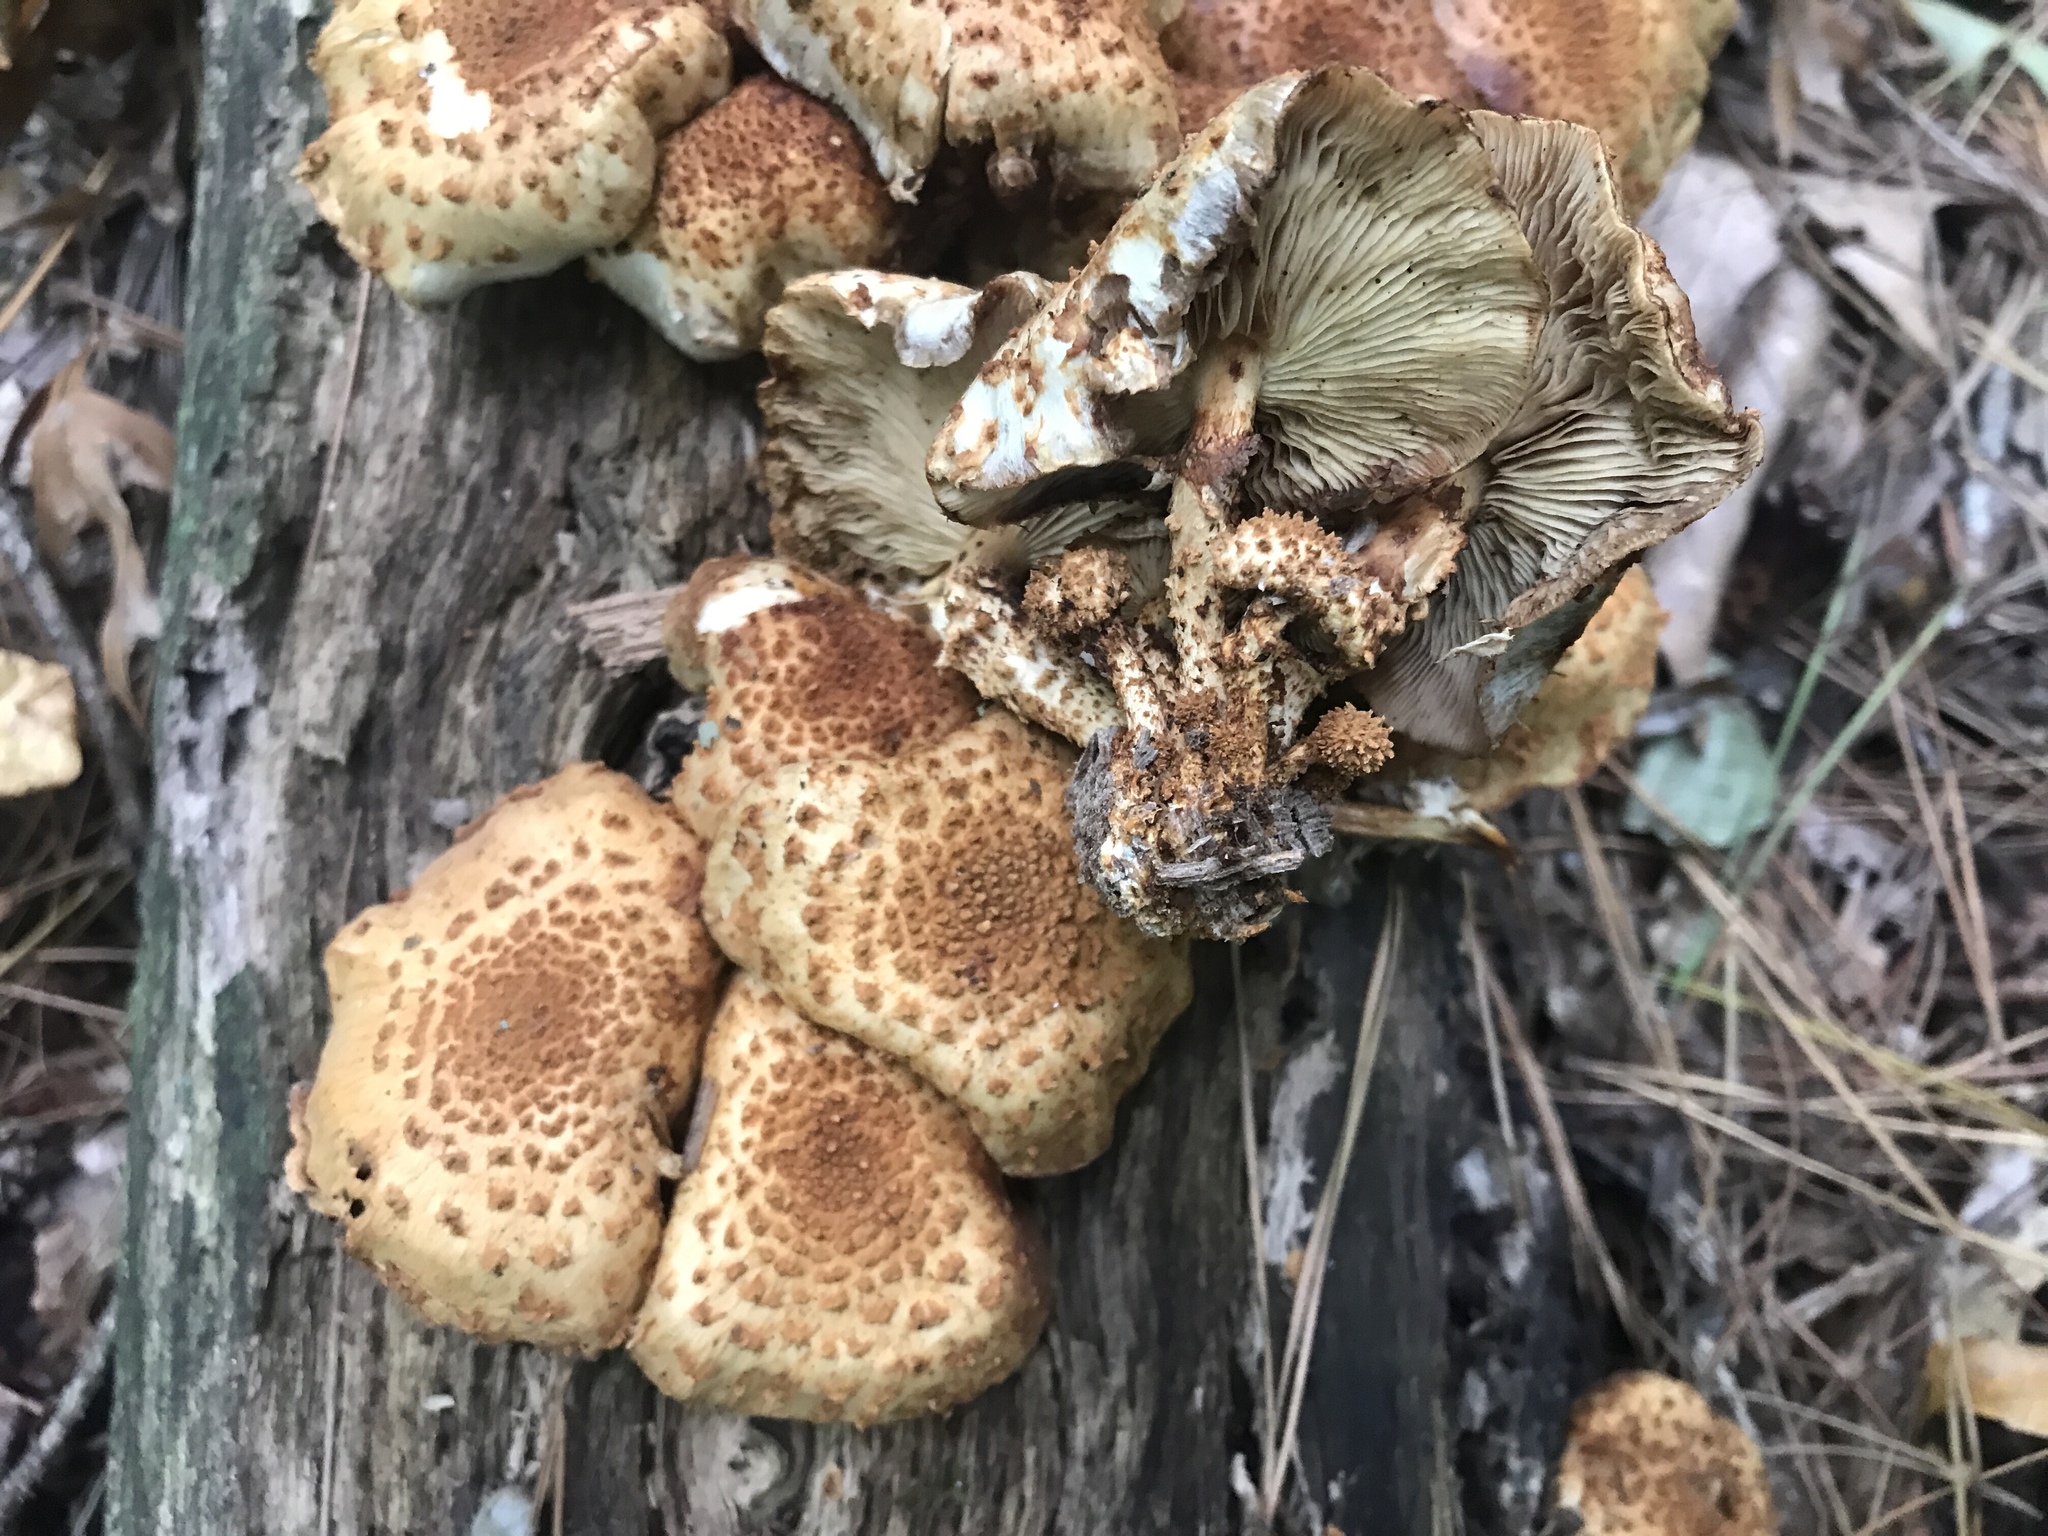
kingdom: Fungi
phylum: Basidiomycota
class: Agaricomycetes
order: Agaricales
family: Strophariaceae
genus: Pholiota
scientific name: Pholiota squarrosoides
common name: Sharp-scaly pholiota
